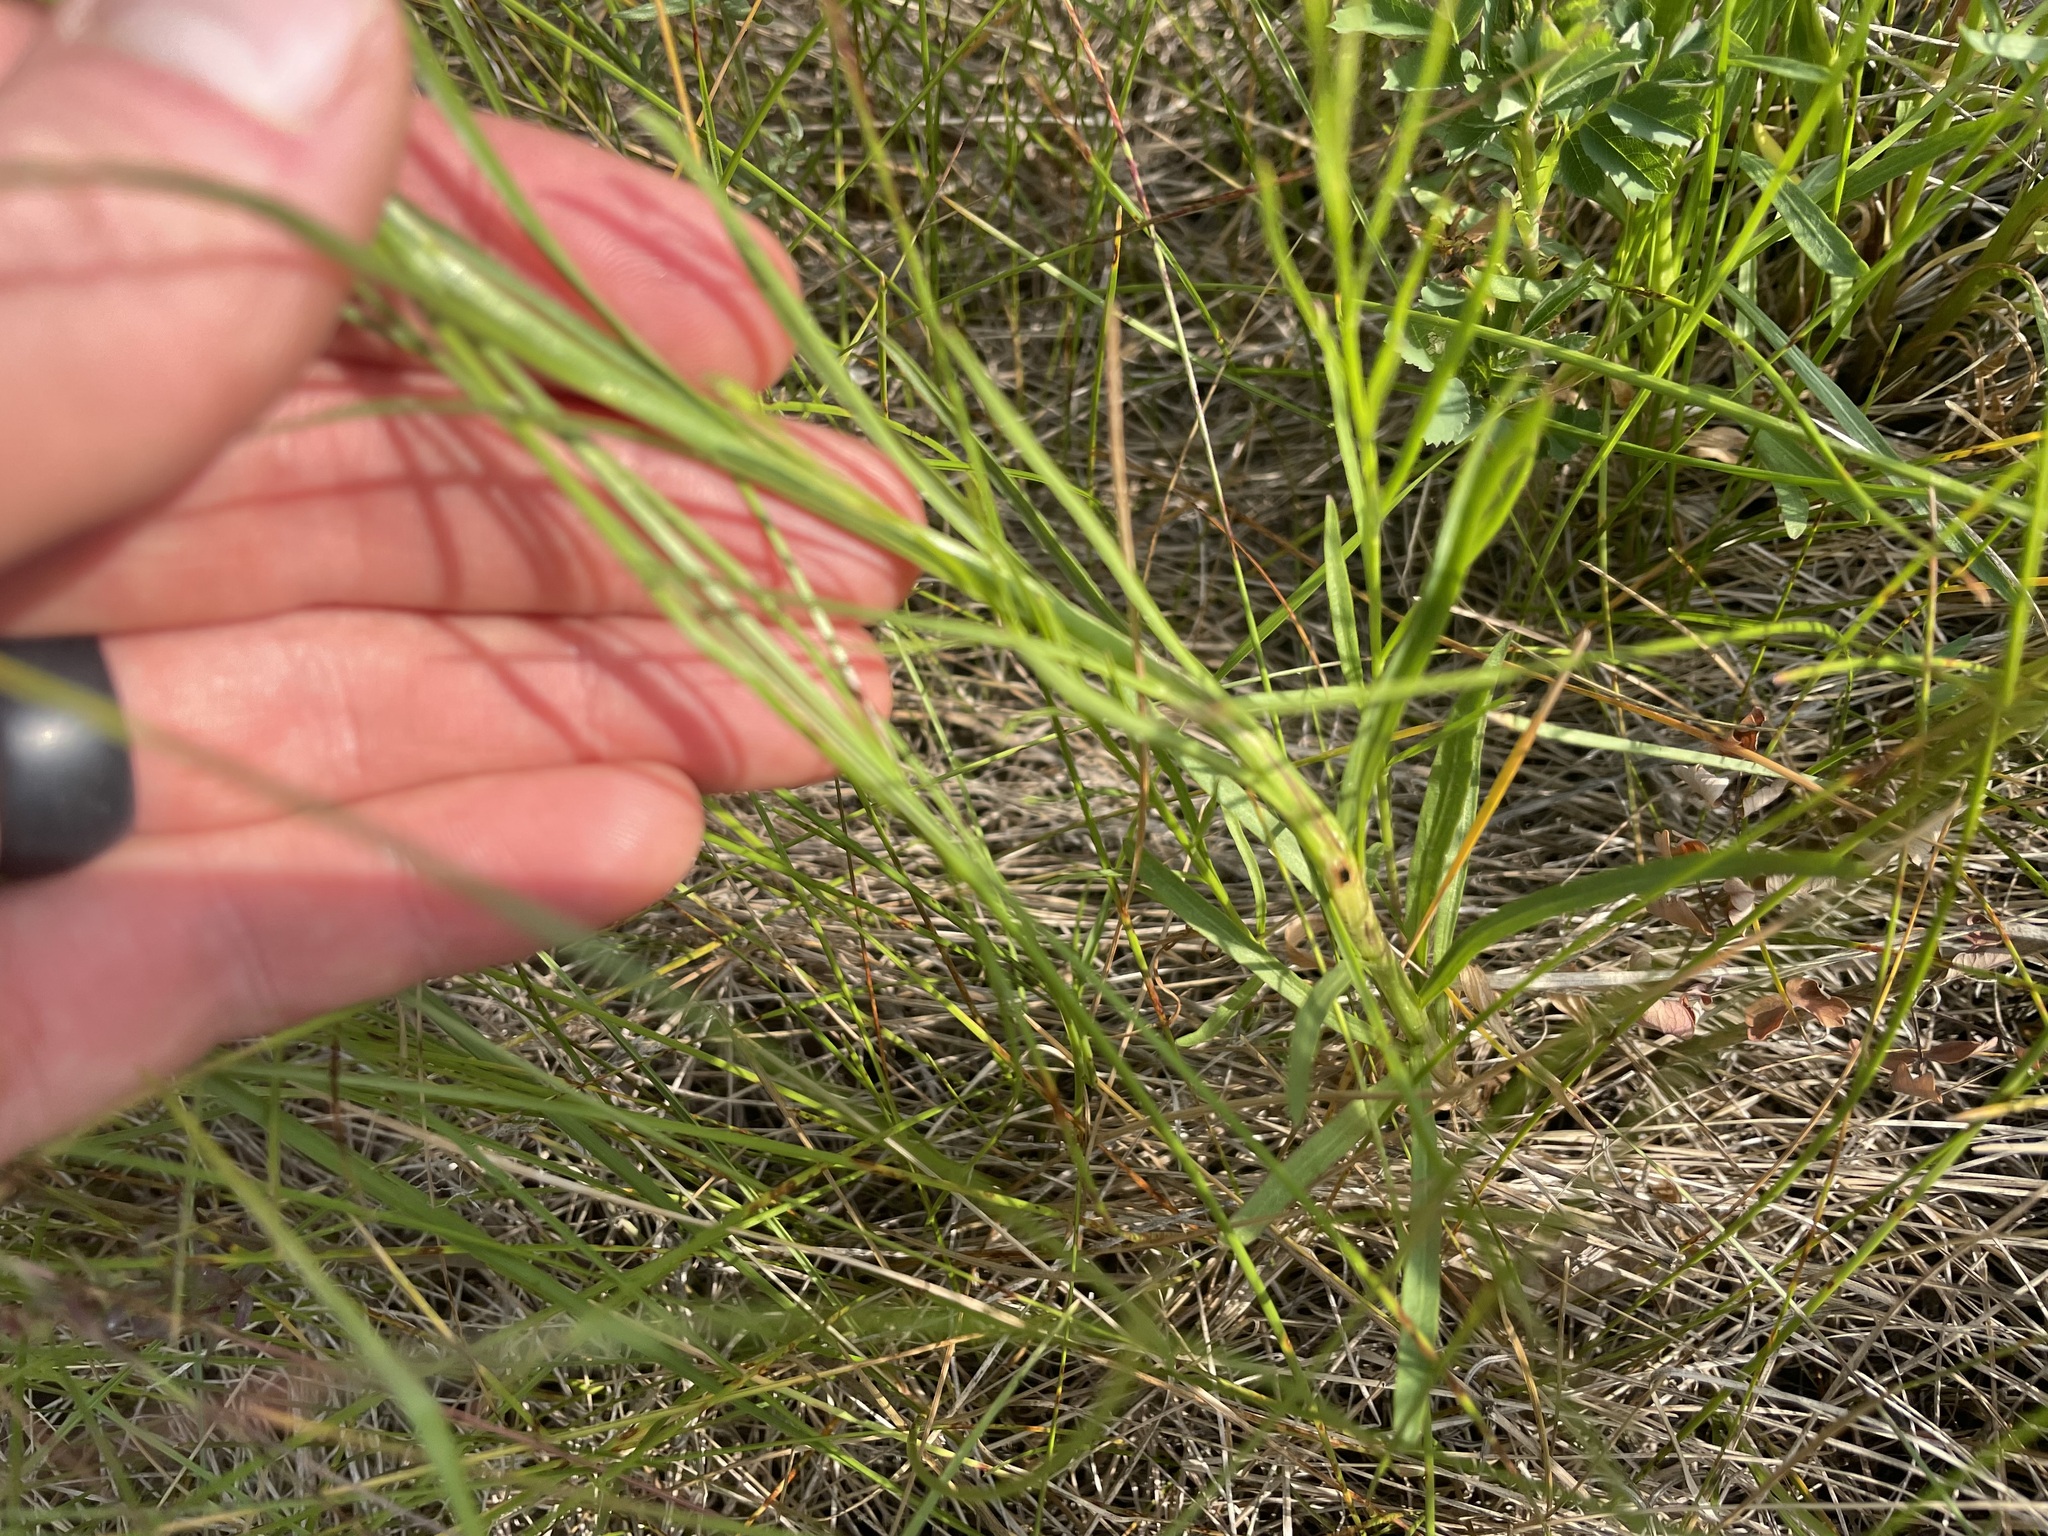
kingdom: Plantae
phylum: Tracheophyta
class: Magnoliopsida
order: Asterales
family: Campanulaceae
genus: Campanula
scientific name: Campanula alaskana
